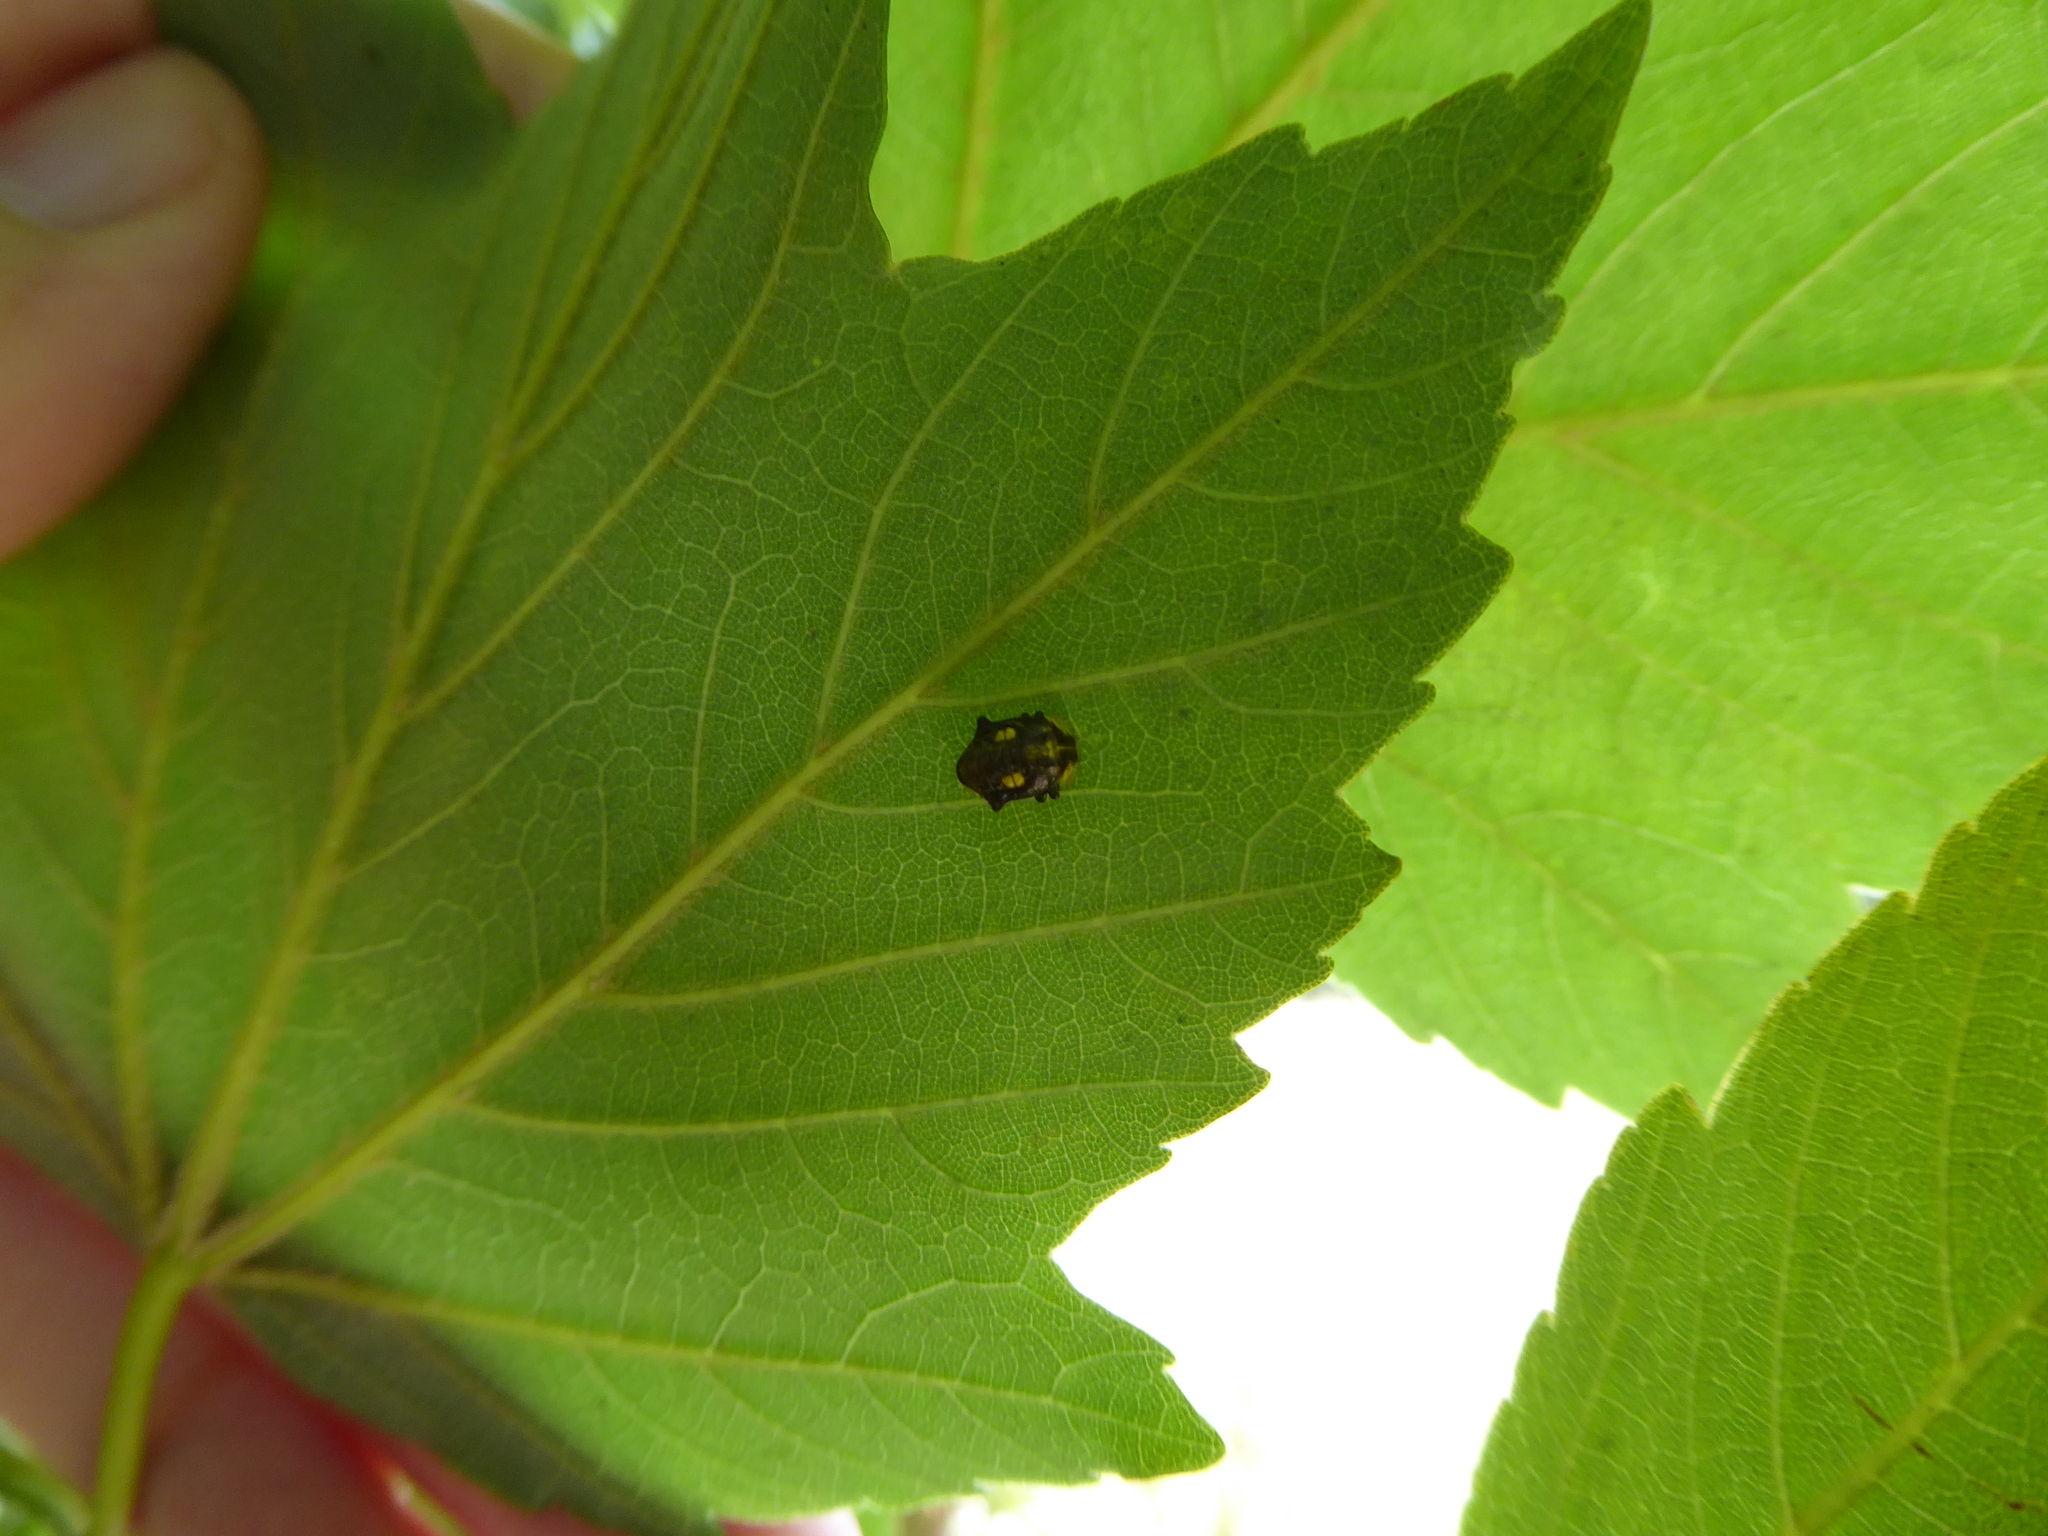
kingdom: Animalia
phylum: Arthropoda
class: Insecta
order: Coleoptera
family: Coccinellidae
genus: Halyzia
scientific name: Halyzia sedecimguttata
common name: Orange ladybird
